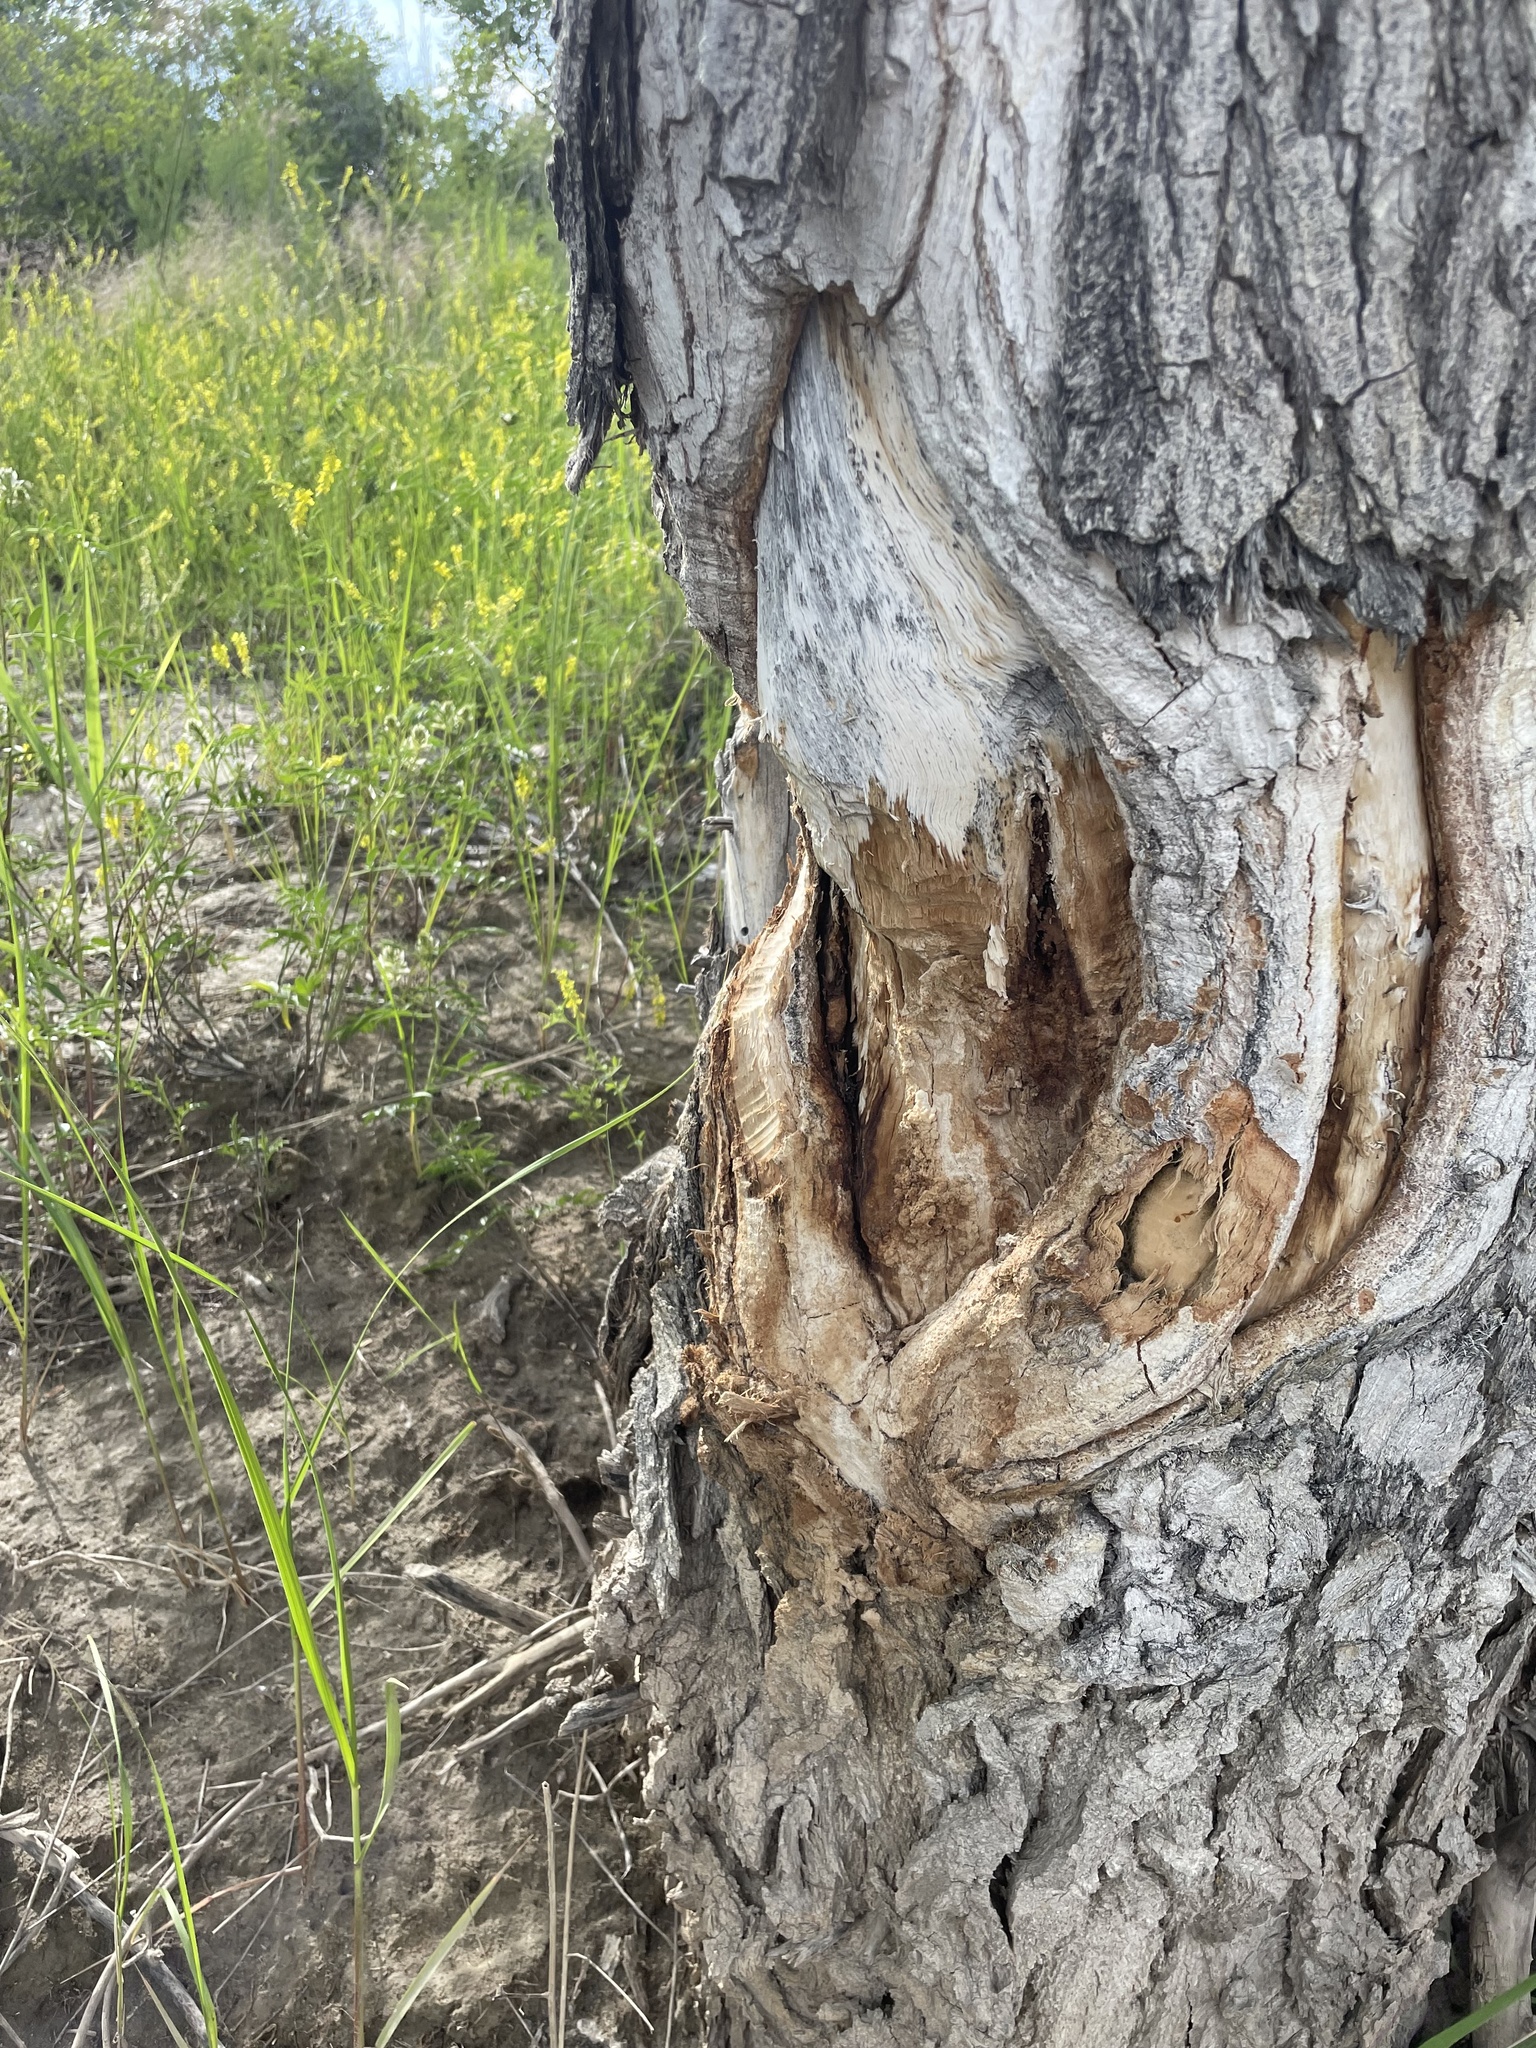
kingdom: Animalia
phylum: Chordata
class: Mammalia
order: Rodentia
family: Castoridae
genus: Castor
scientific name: Castor canadensis
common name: American beaver
